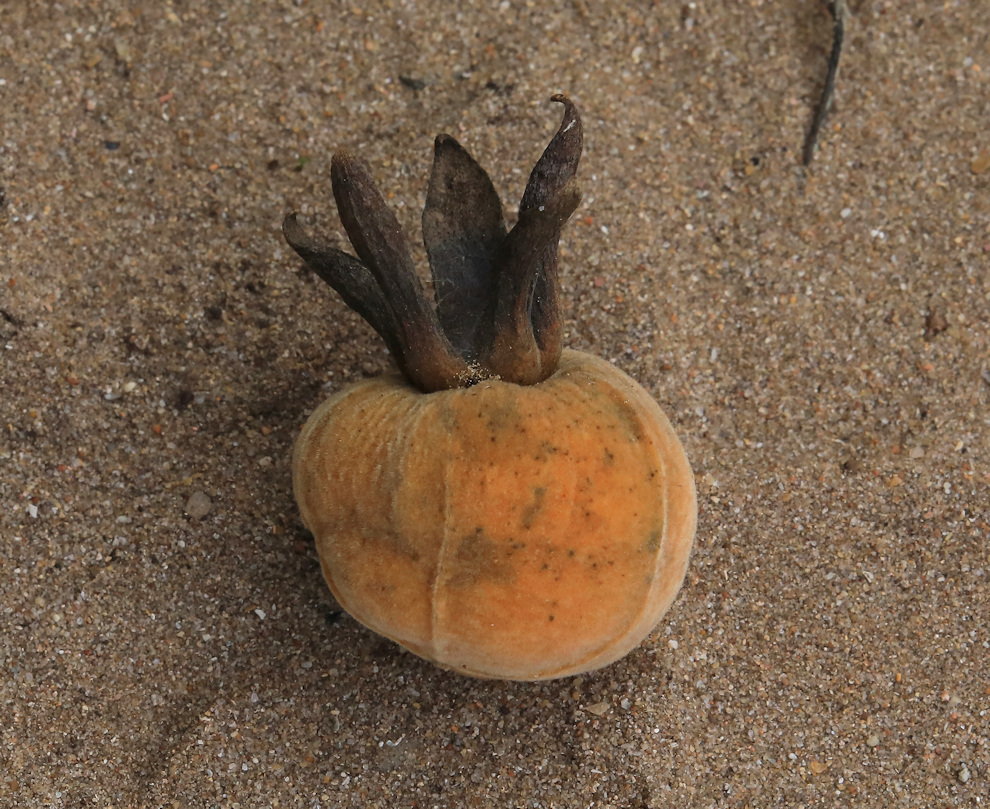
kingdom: Plantae
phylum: Tracheophyta
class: Magnoliopsida
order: Ericales
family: Ebenaceae
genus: Diospyros
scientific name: Diospyros dichrophylla
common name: Common star-apple
